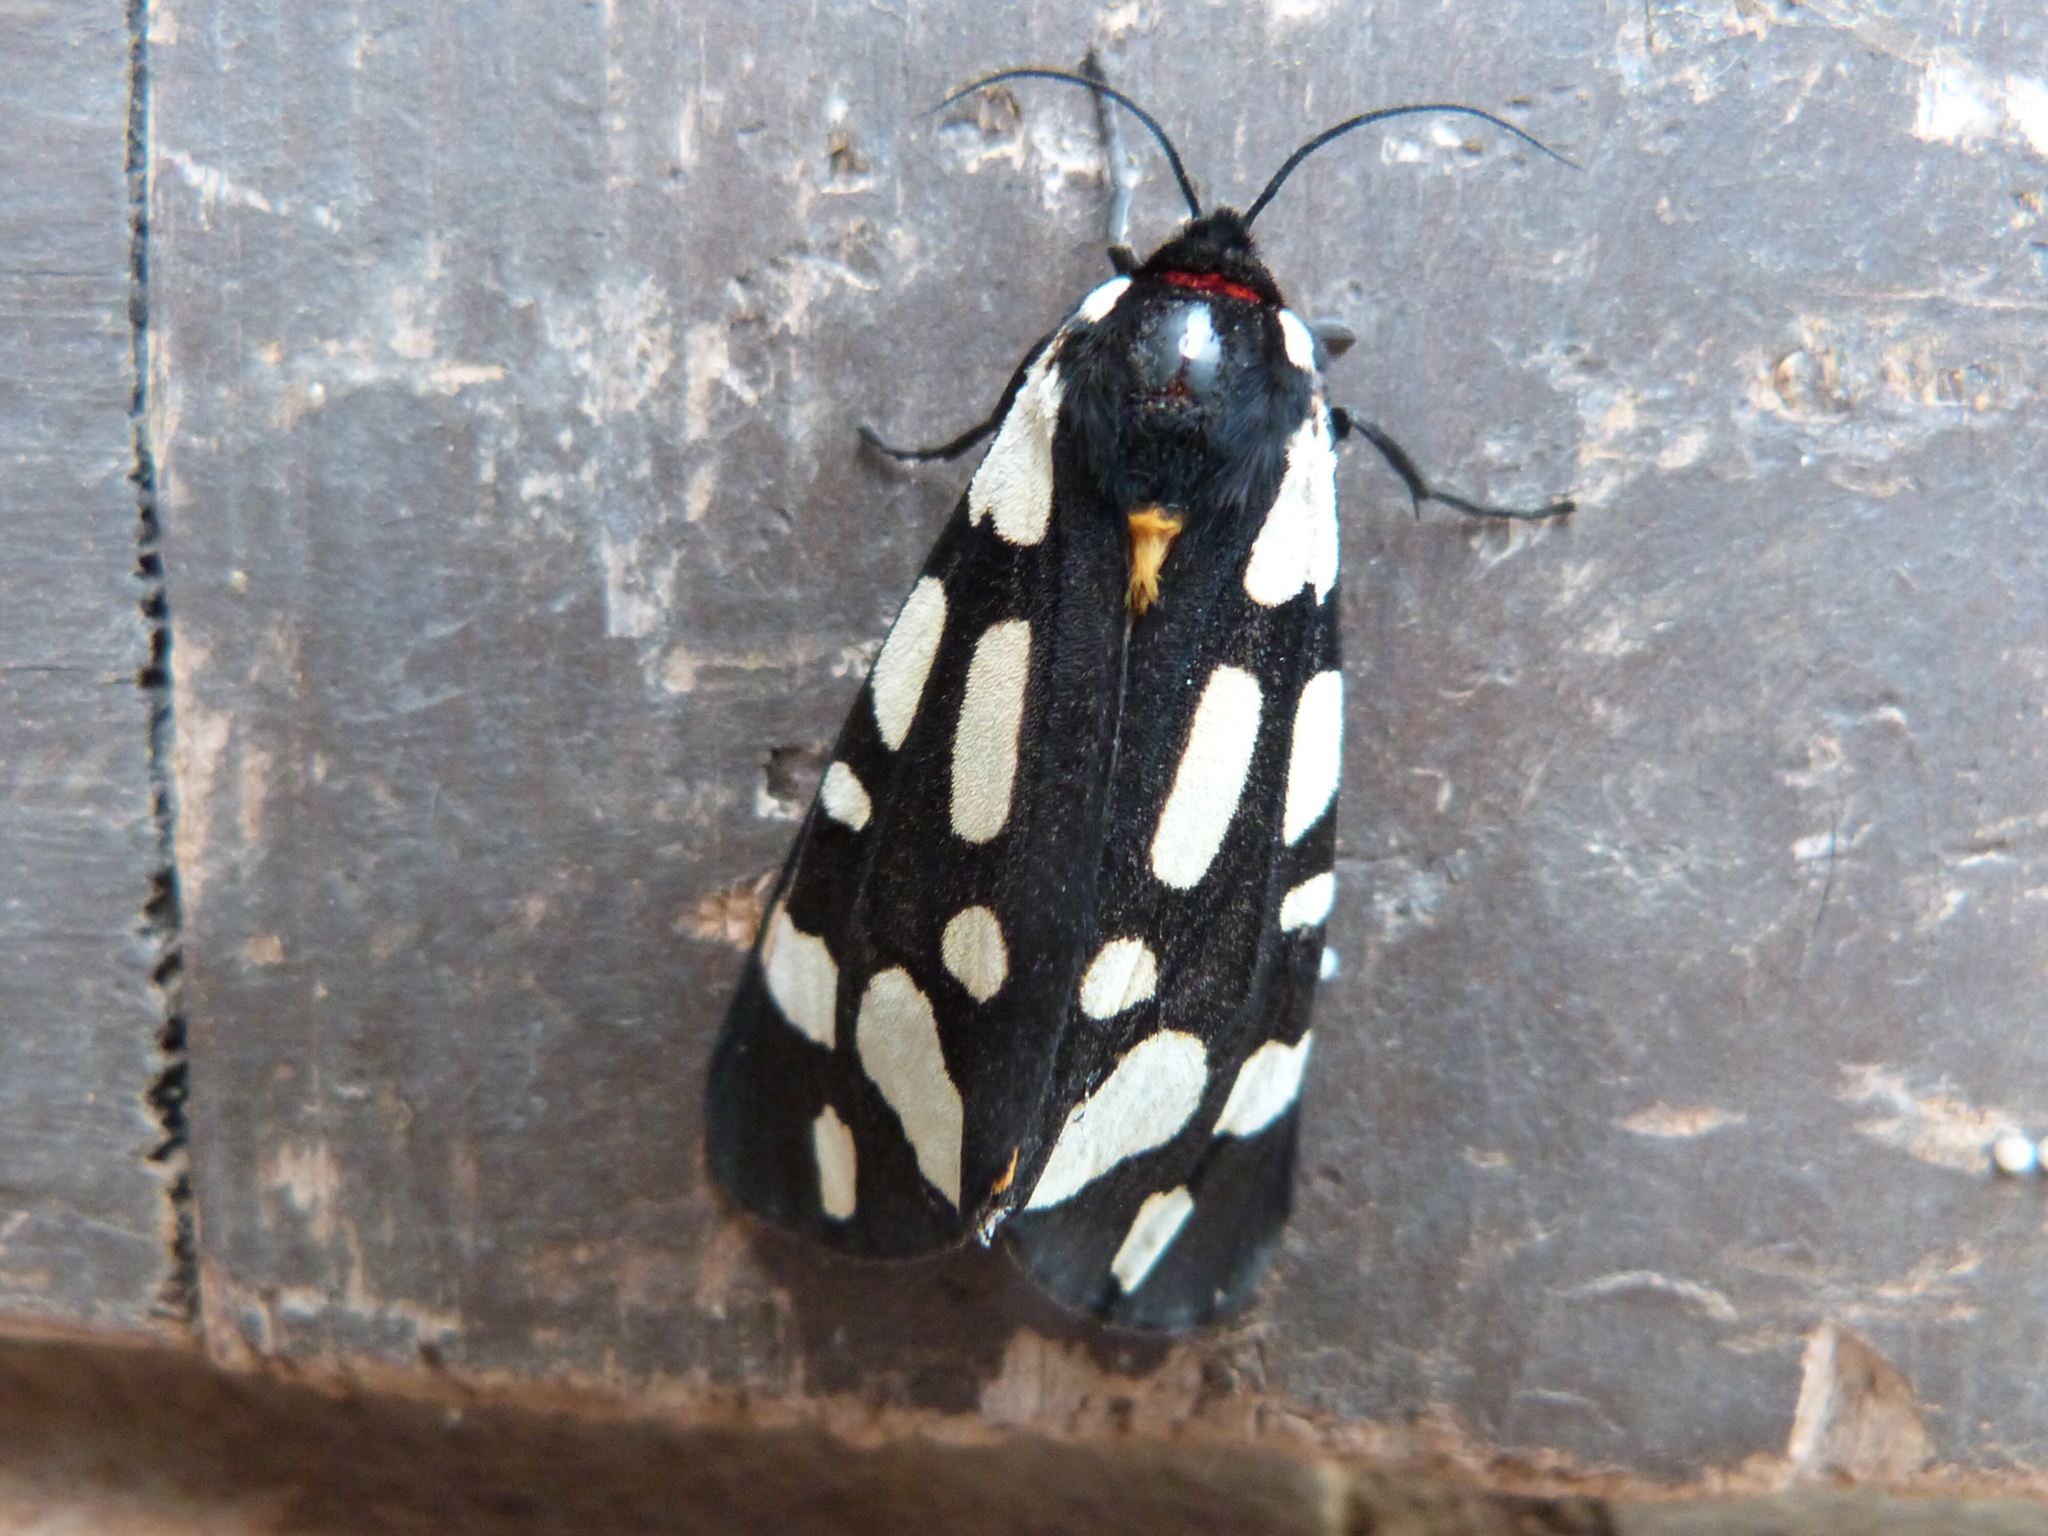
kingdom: Animalia
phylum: Arthropoda
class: Insecta
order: Lepidoptera
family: Erebidae
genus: Epicallia
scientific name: Epicallia villica
